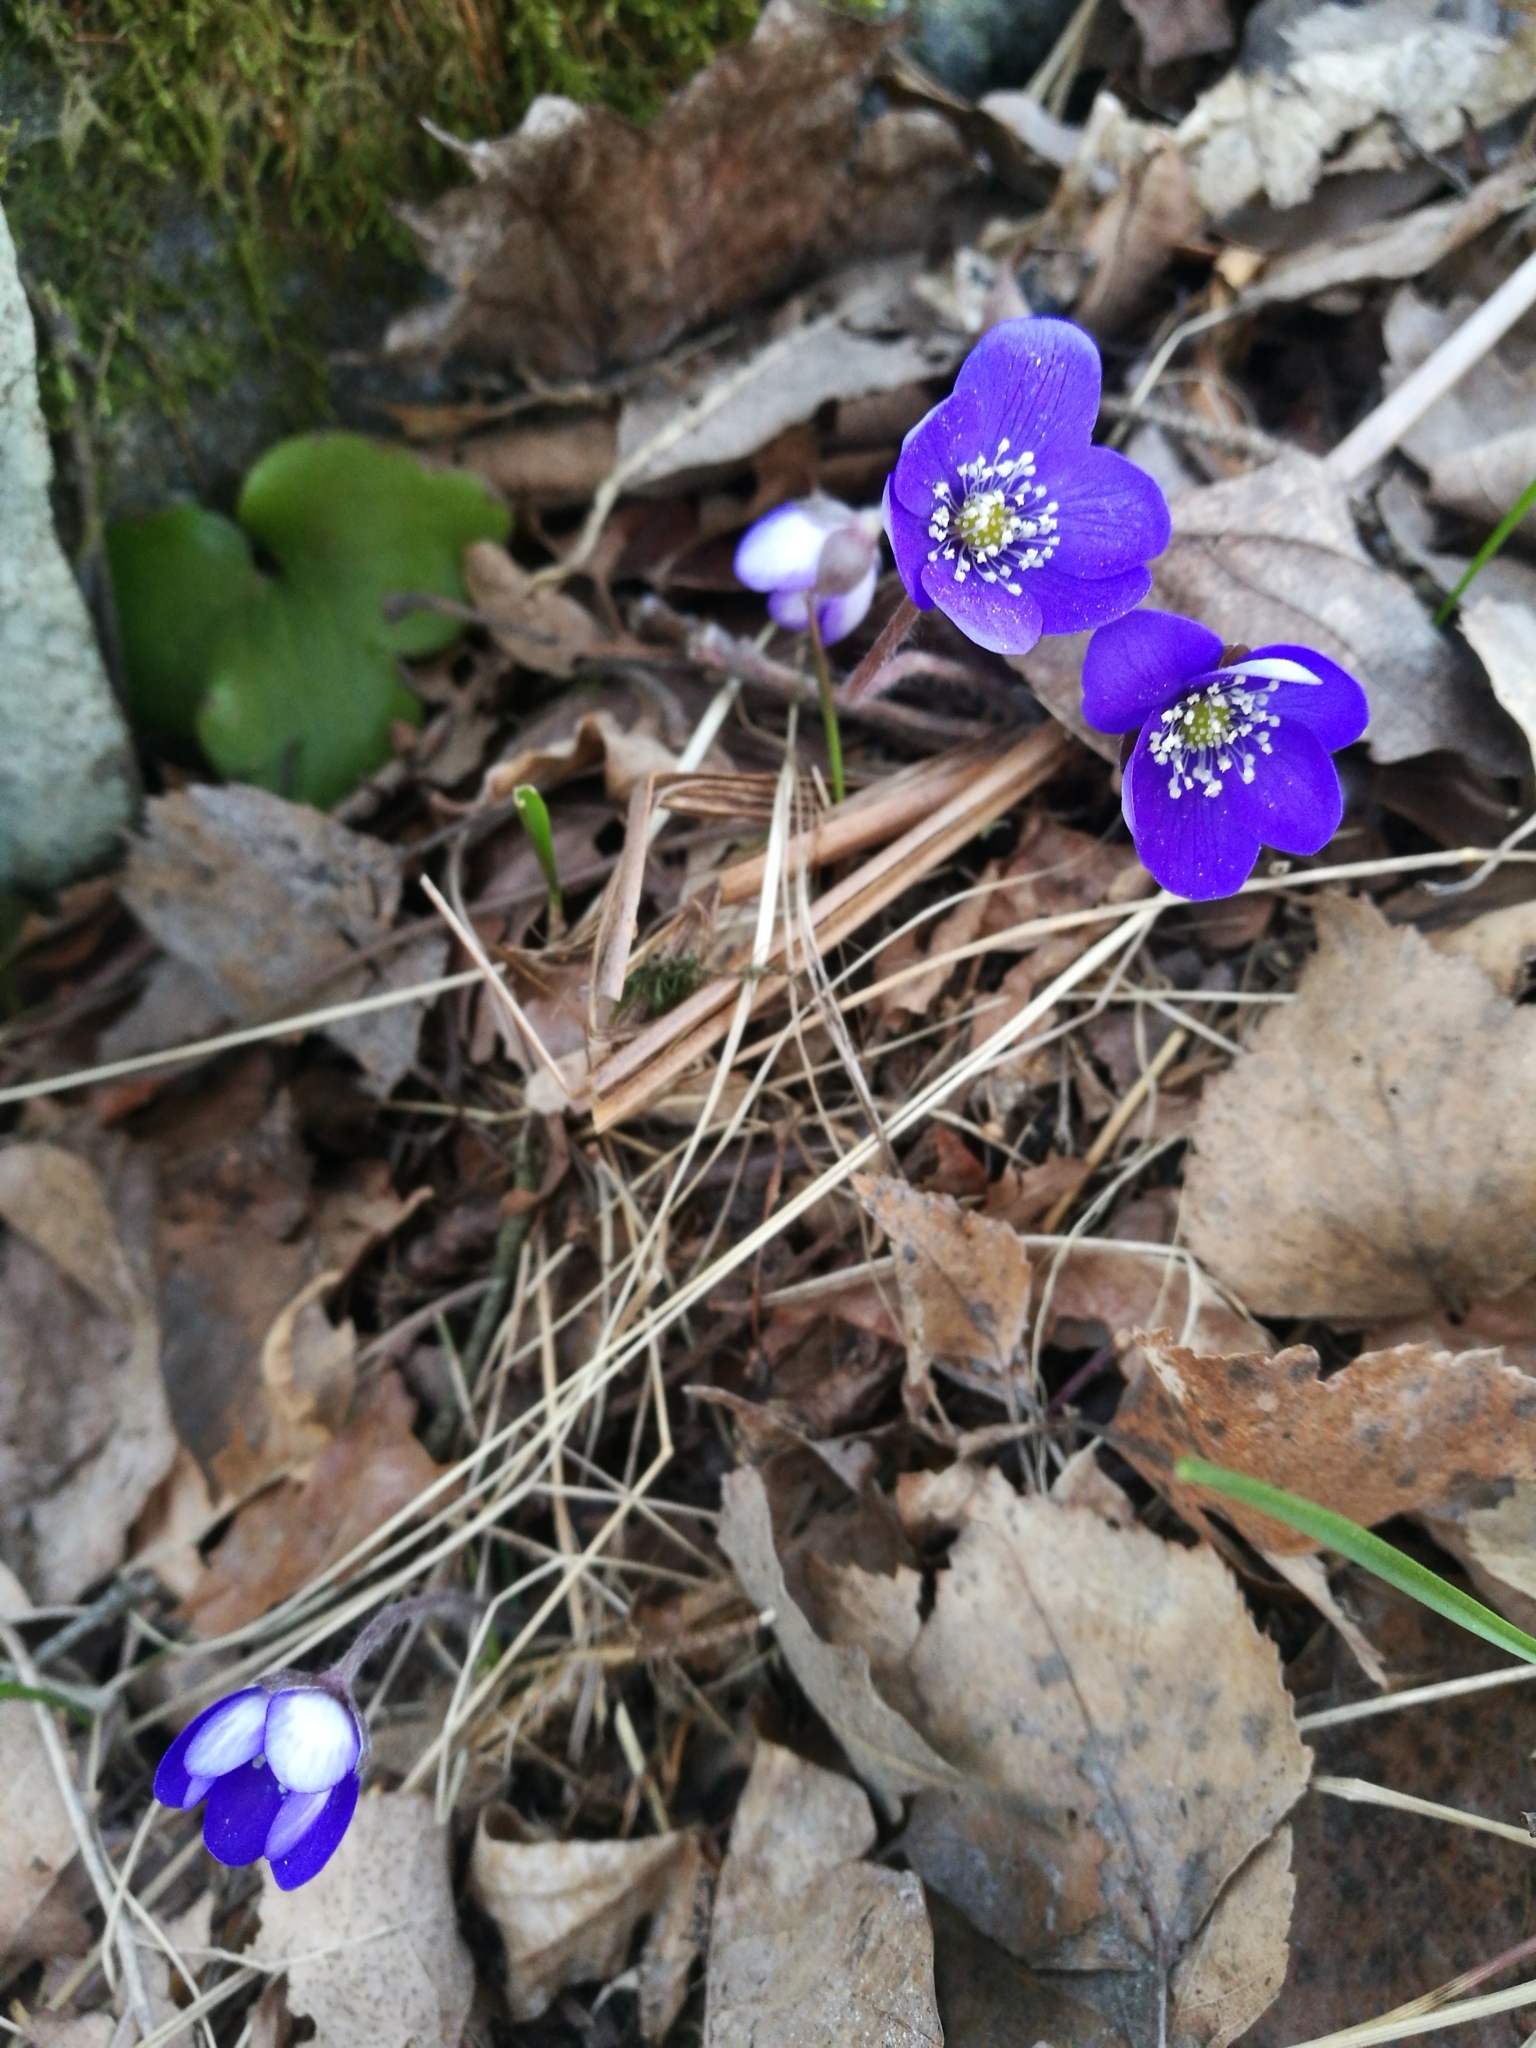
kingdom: Plantae
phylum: Tracheophyta
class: Magnoliopsida
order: Ranunculales
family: Ranunculaceae
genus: Hepatica
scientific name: Hepatica nobilis
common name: Liverleaf
